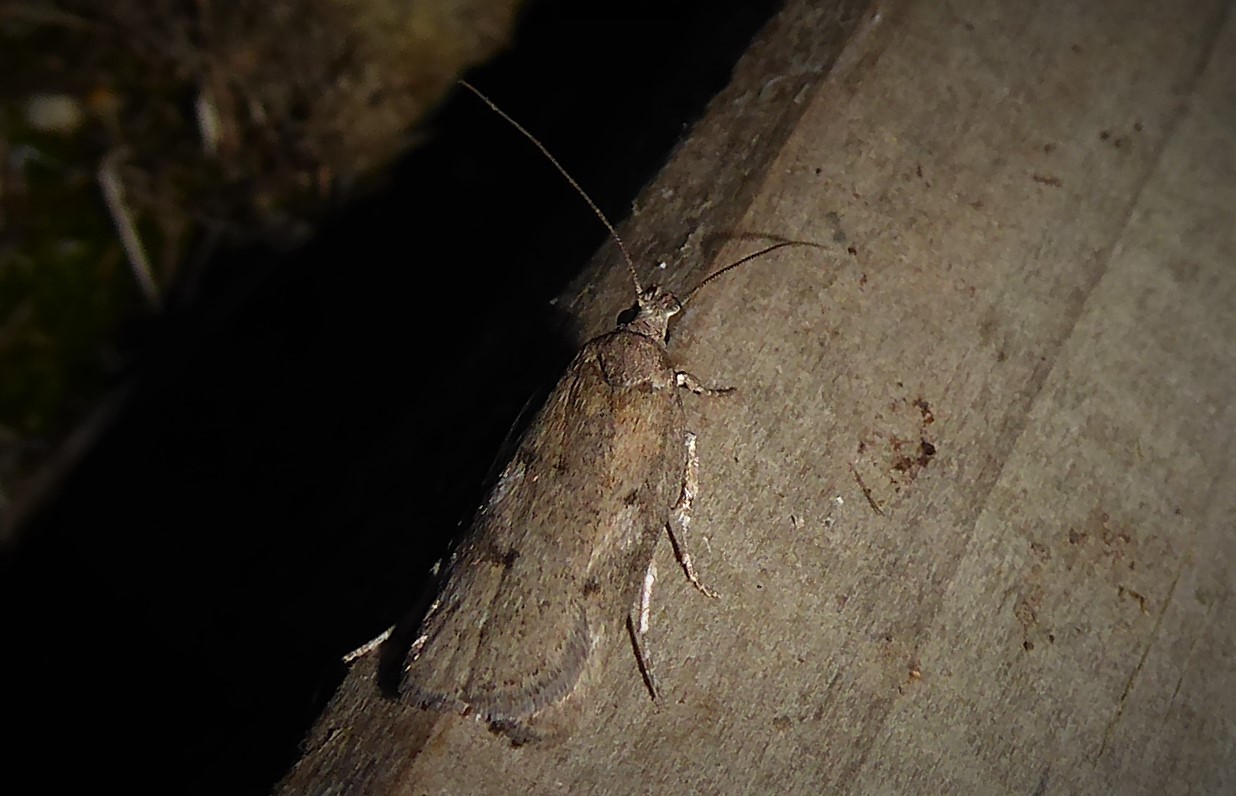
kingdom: Animalia
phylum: Arthropoda
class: Insecta
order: Lepidoptera
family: Depressariidae
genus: Phaeosaces
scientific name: Phaeosaces apocrypta
